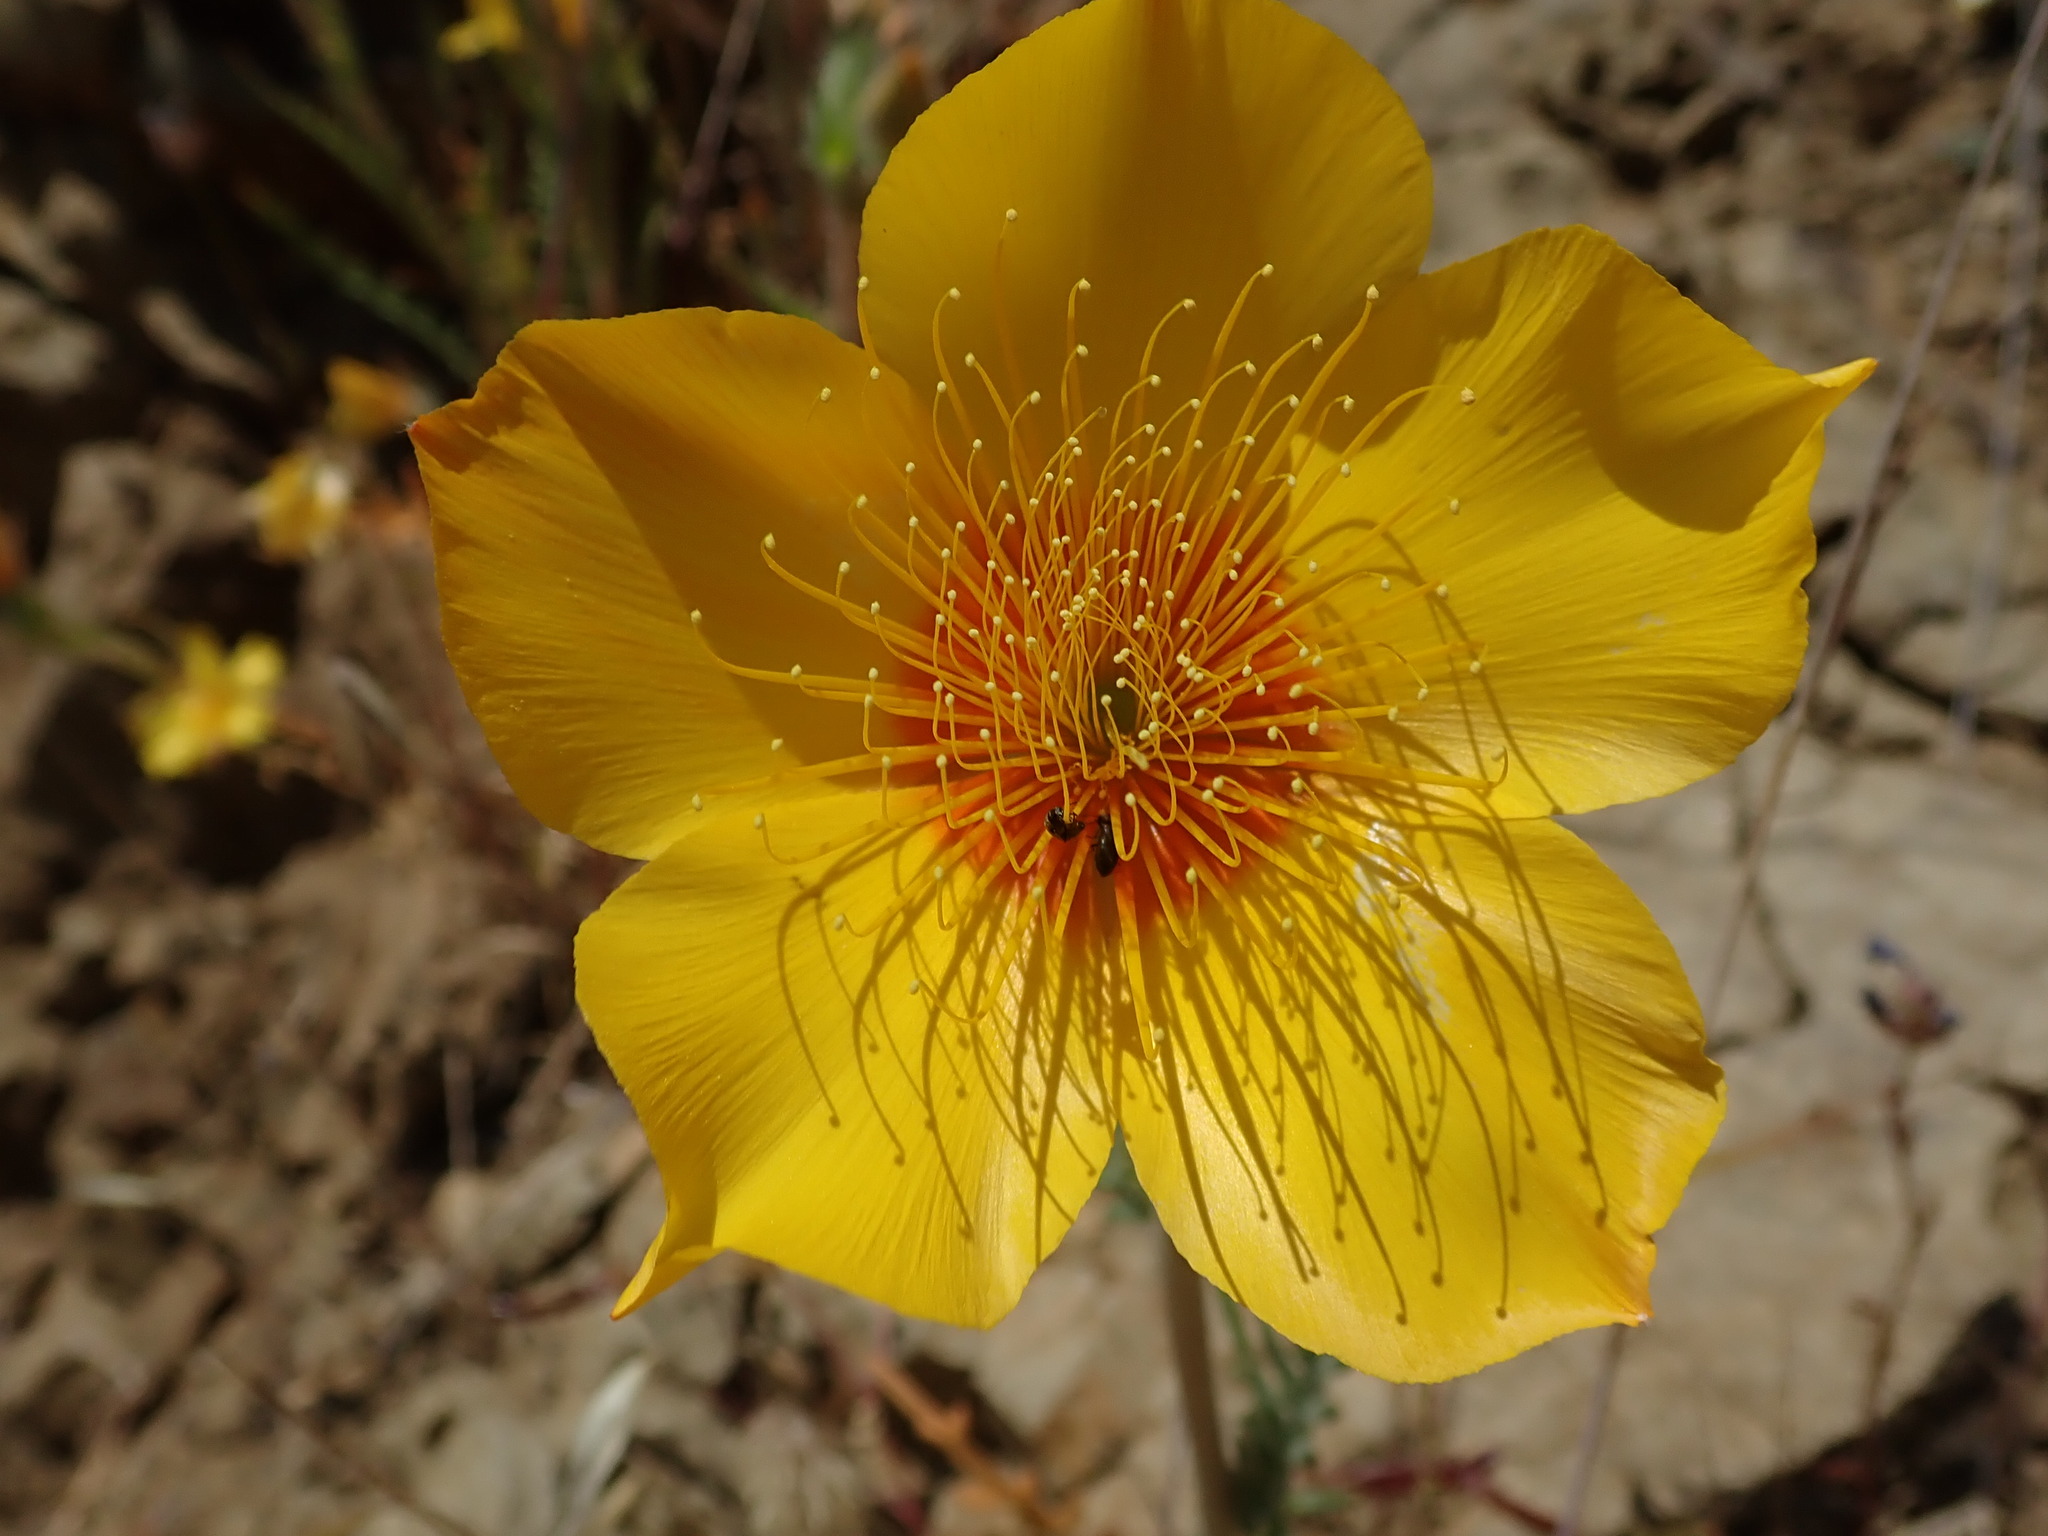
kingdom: Plantae
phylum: Tracheophyta
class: Magnoliopsida
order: Cornales
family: Loasaceae
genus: Mentzelia
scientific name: Mentzelia lindleyi
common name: Golden bartonia
